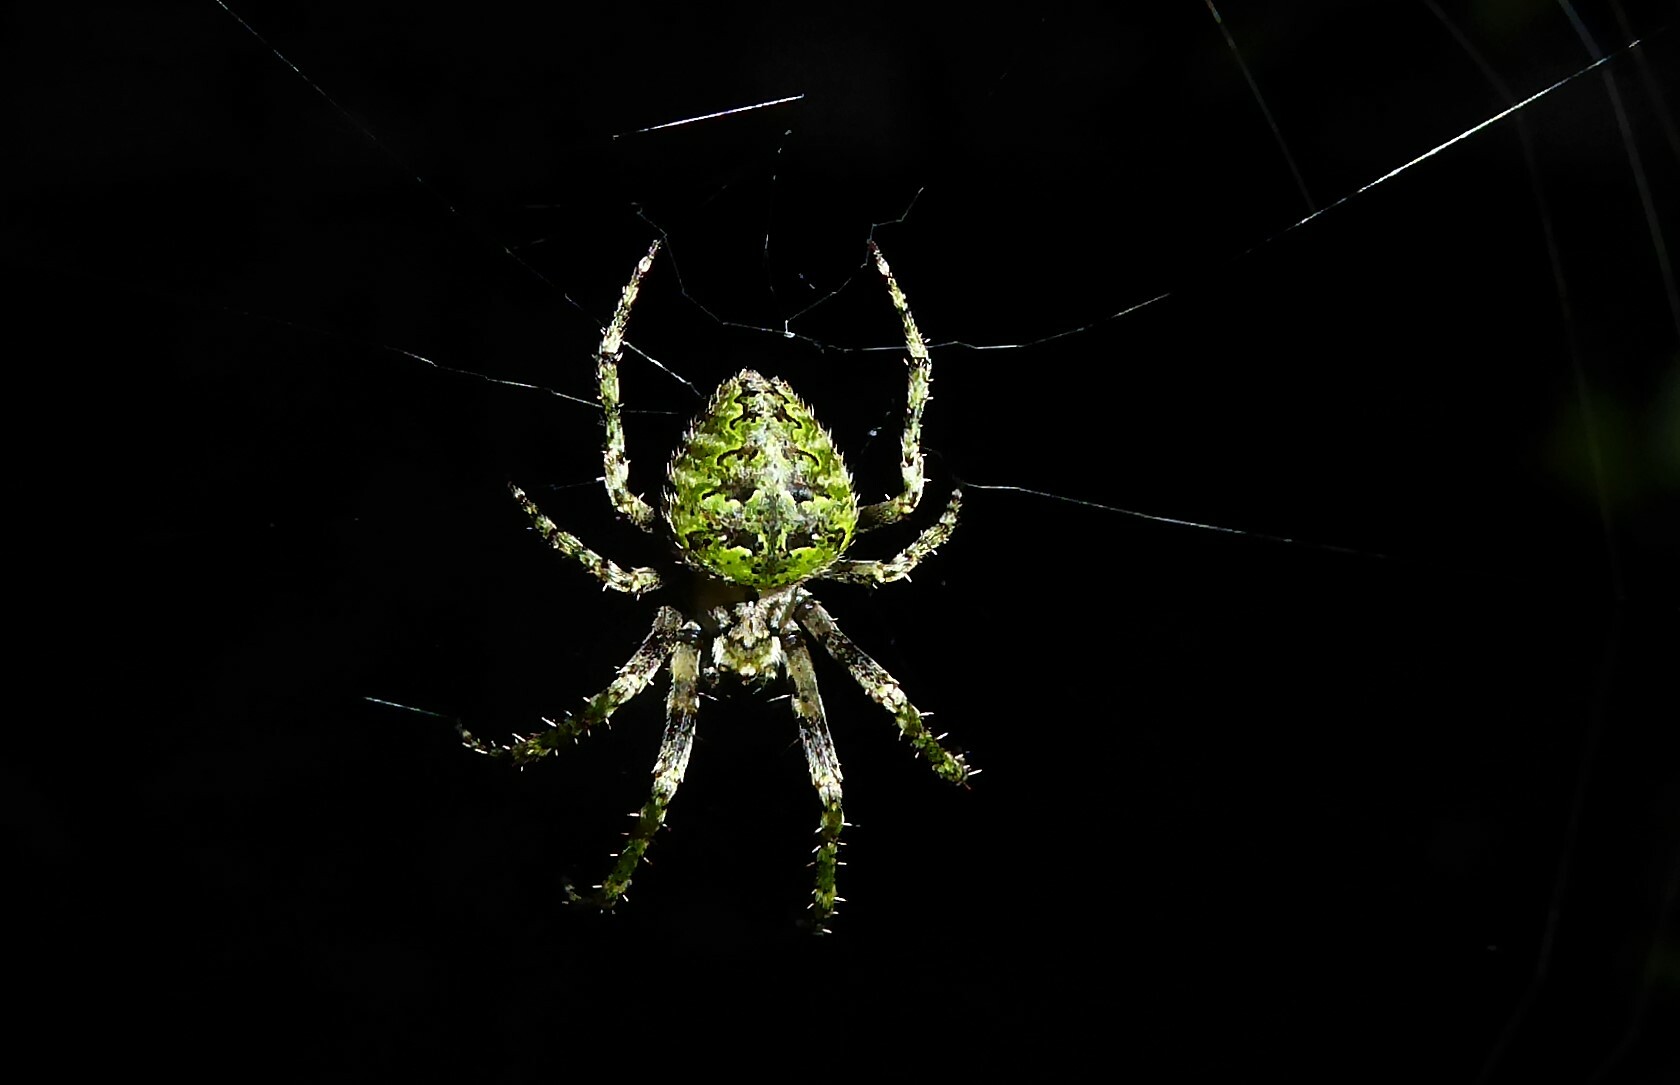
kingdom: Animalia
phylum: Arthropoda
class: Arachnida
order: Araneae
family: Araneidae
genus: Cryptaranea
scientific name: Cryptaranea atrihastula
